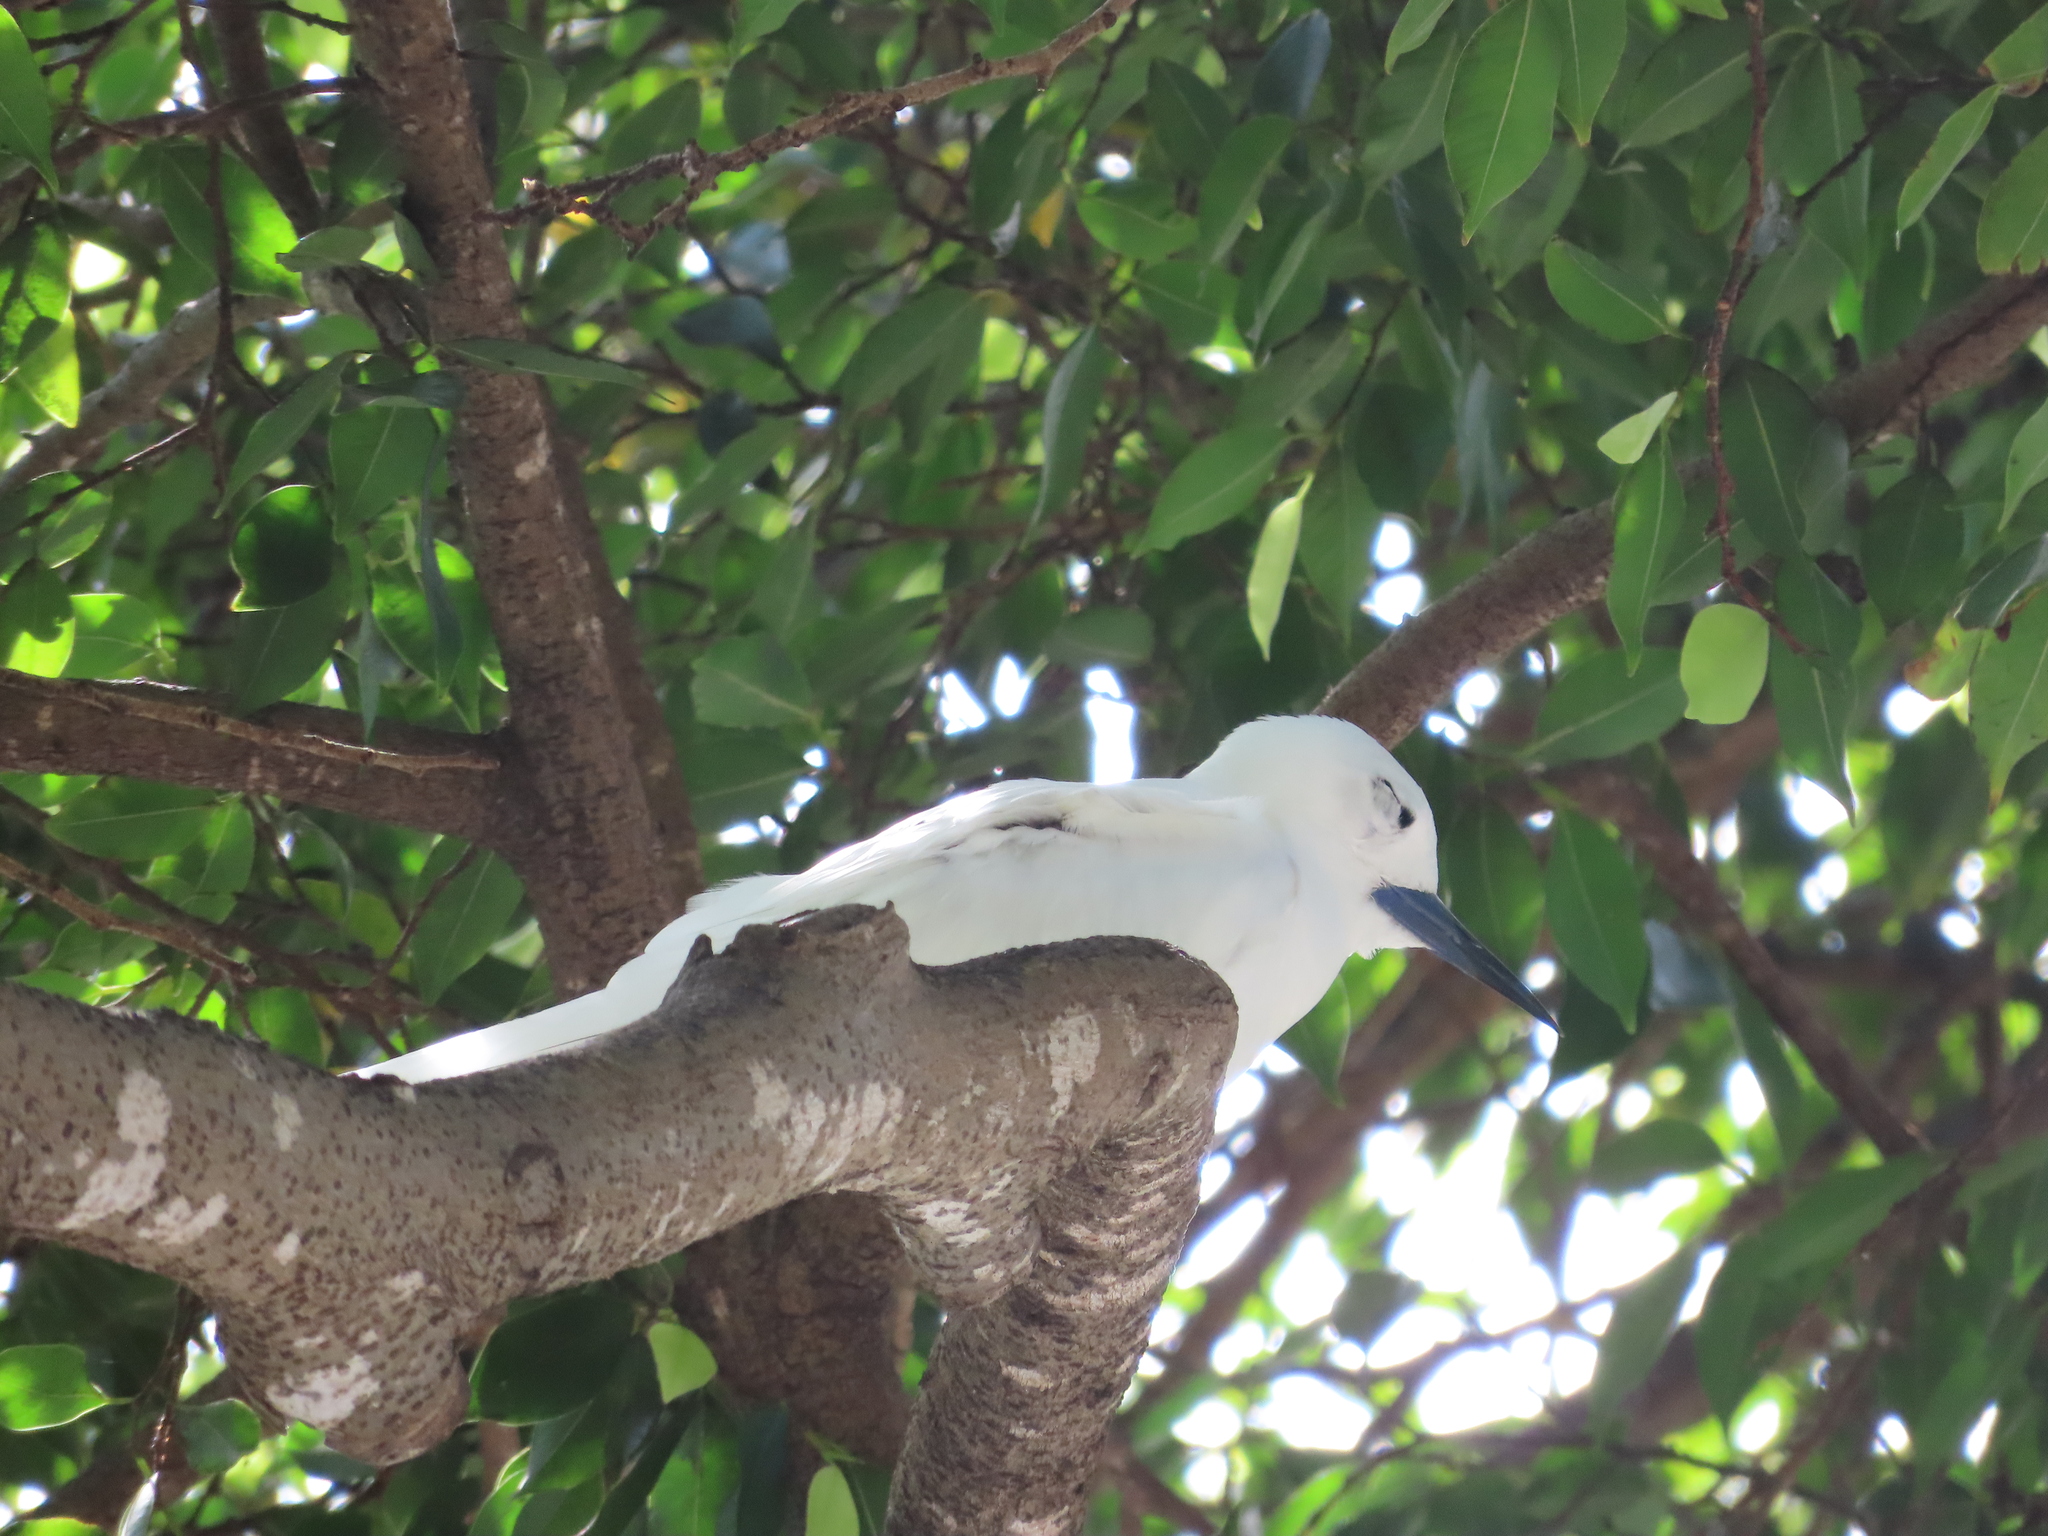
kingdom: Animalia
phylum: Chordata
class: Aves
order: Charadriiformes
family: Laridae
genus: Gygis
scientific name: Gygis alba
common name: White tern
